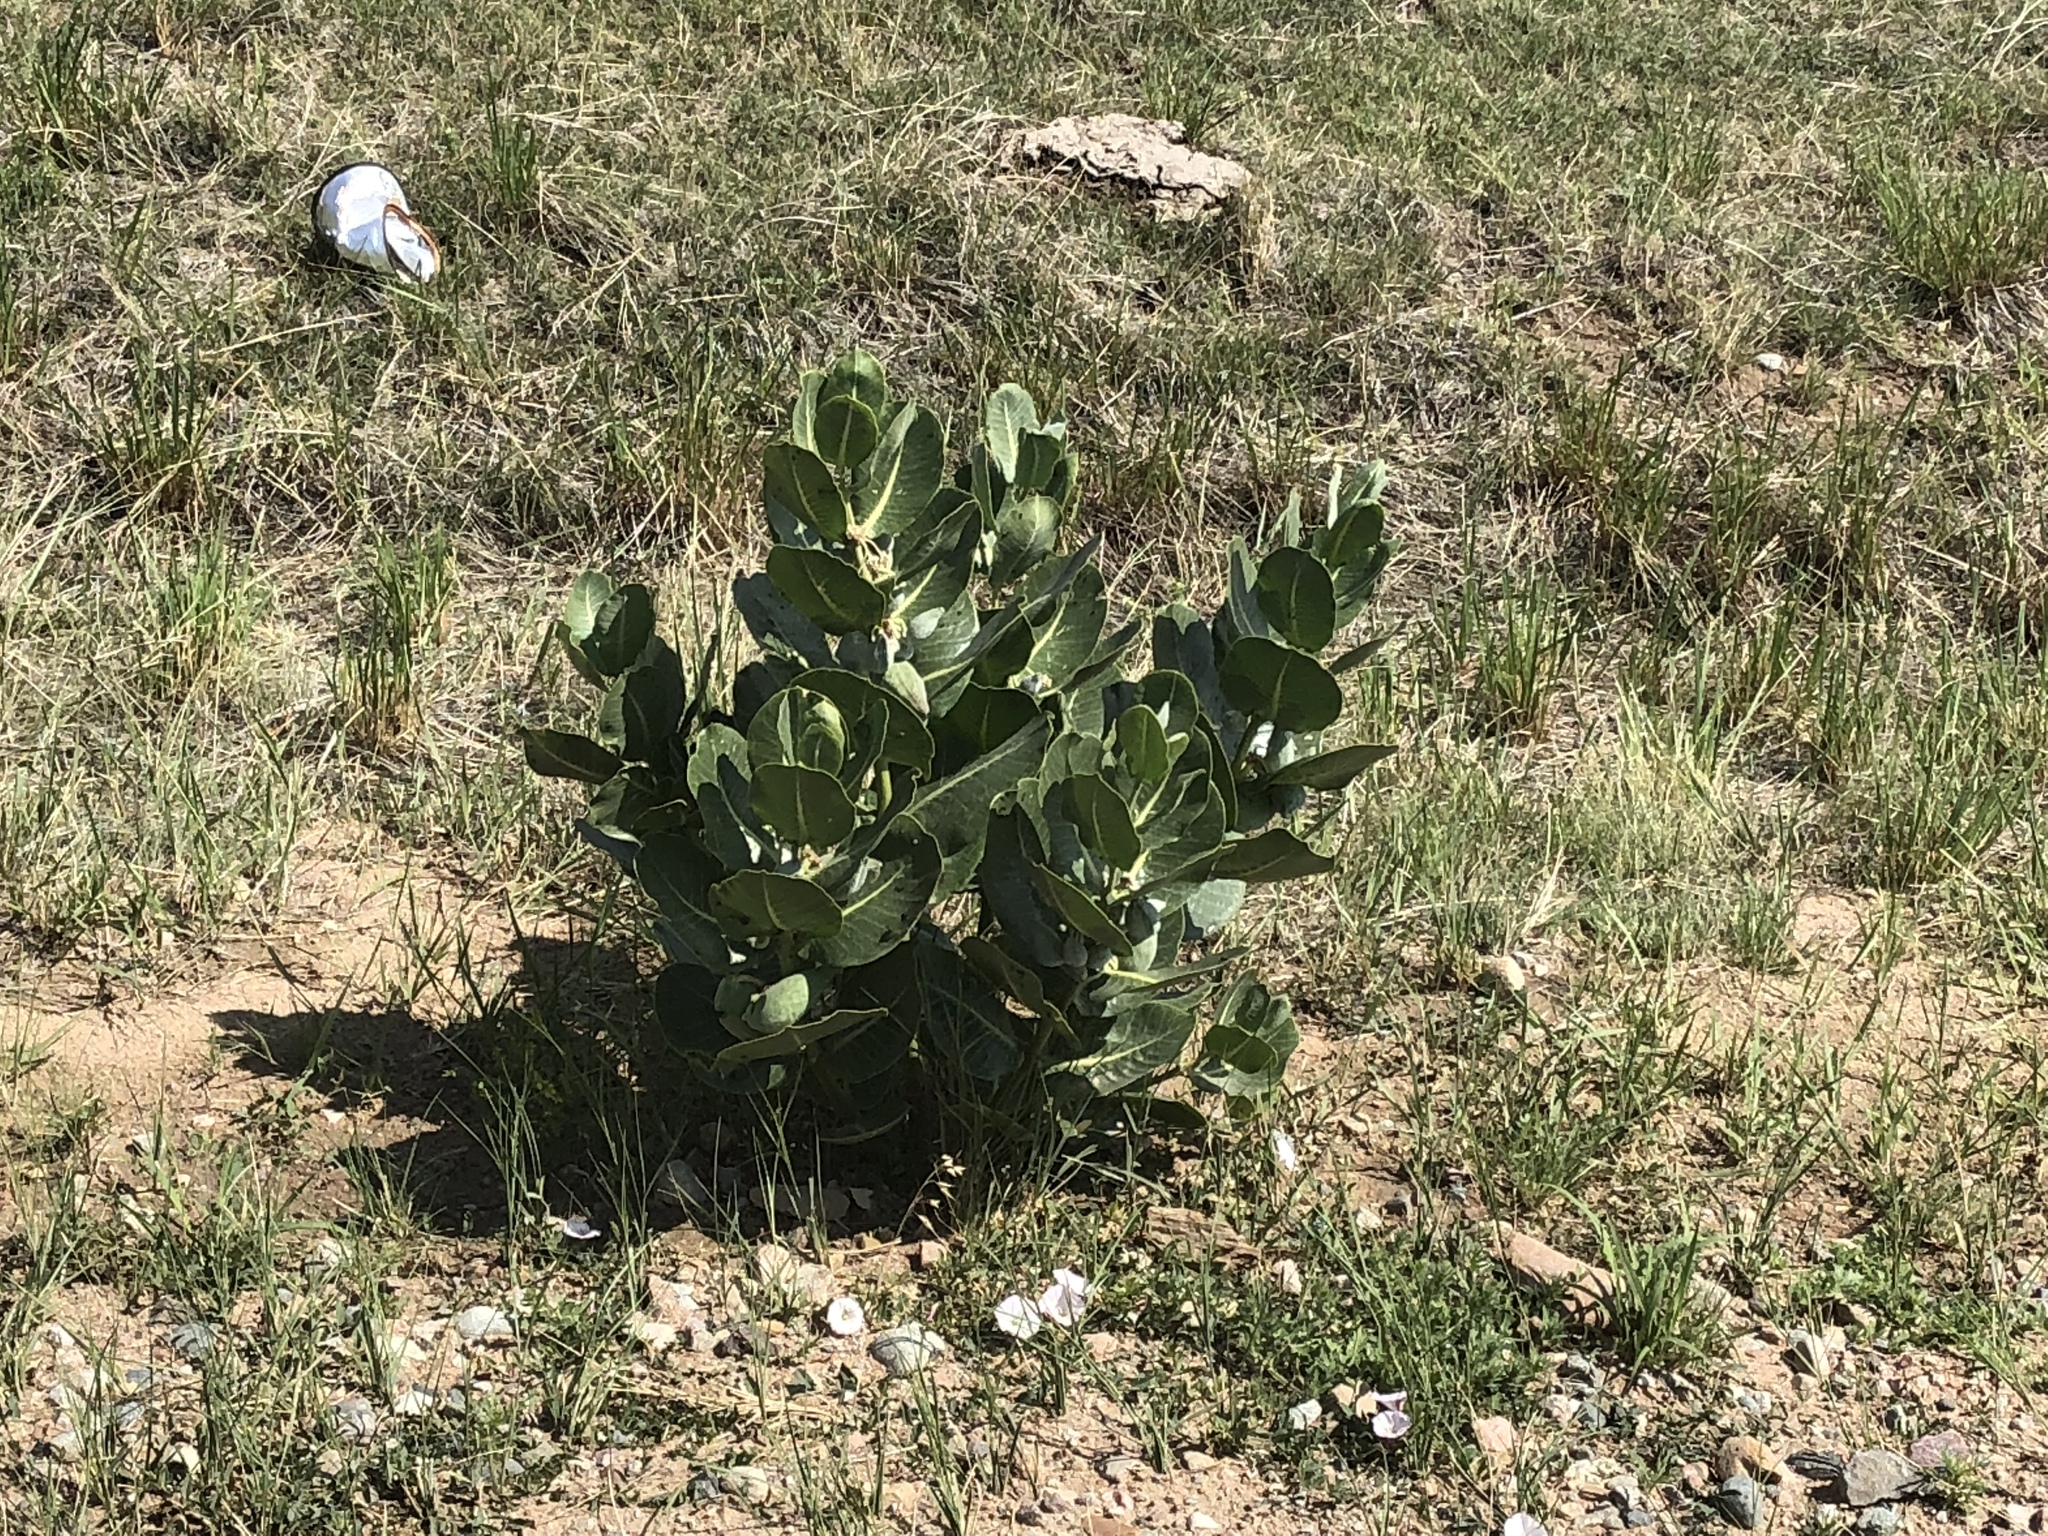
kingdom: Plantae
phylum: Tracheophyta
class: Magnoliopsida
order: Gentianales
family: Apocynaceae
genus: Asclepias
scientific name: Asclepias latifolia
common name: Broadleaf milkweed
